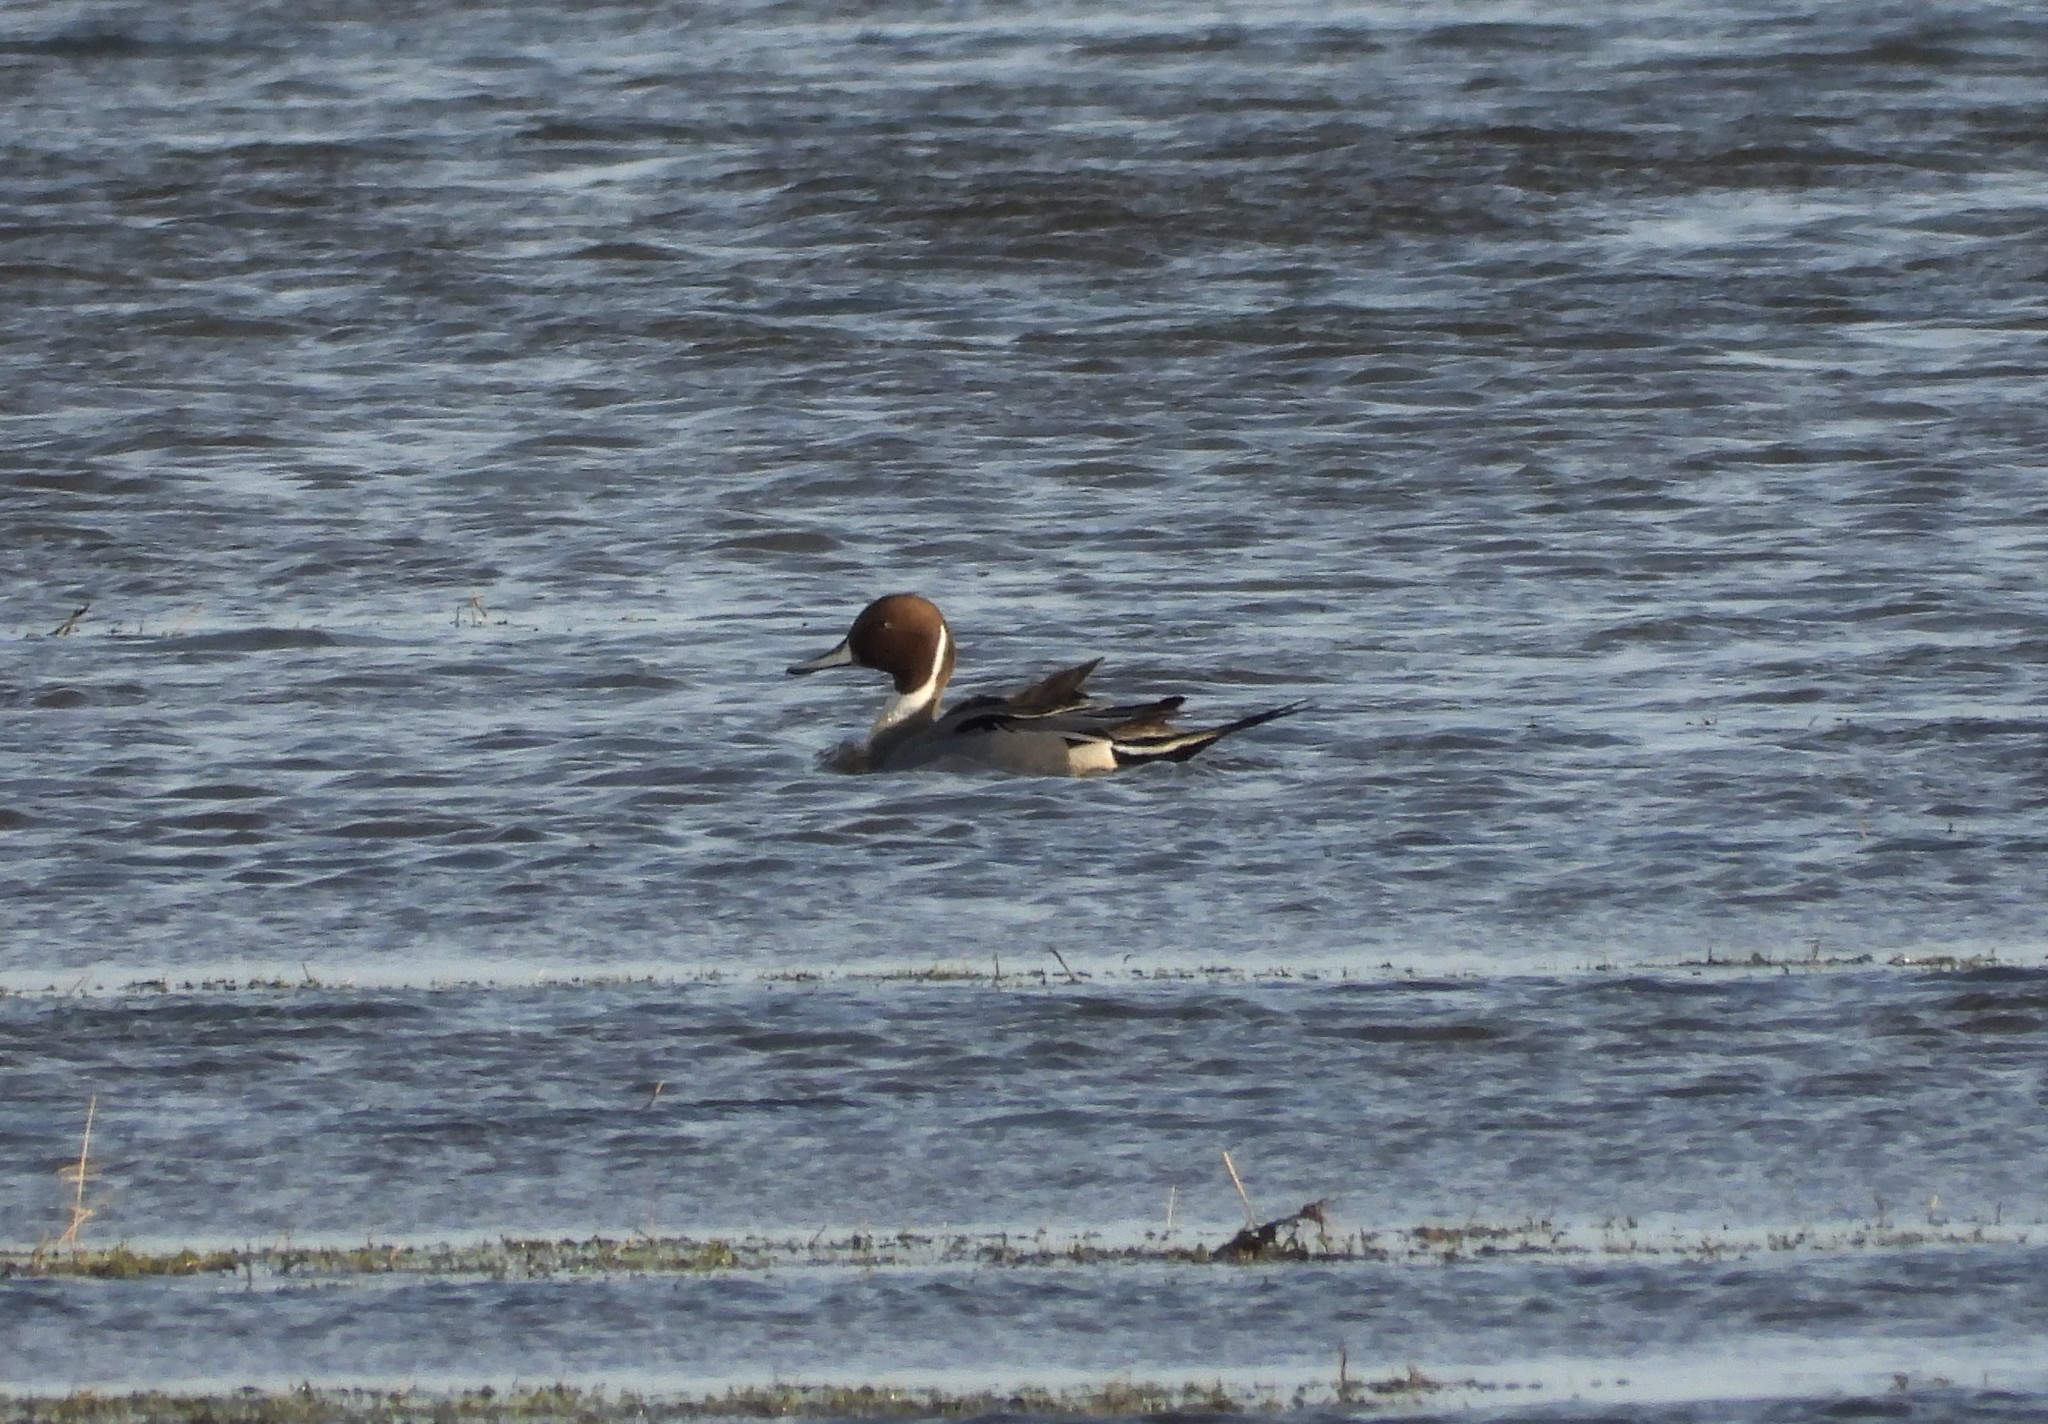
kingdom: Animalia
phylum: Chordata
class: Aves
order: Anseriformes
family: Anatidae
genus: Anas
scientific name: Anas acuta
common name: Northern pintail
